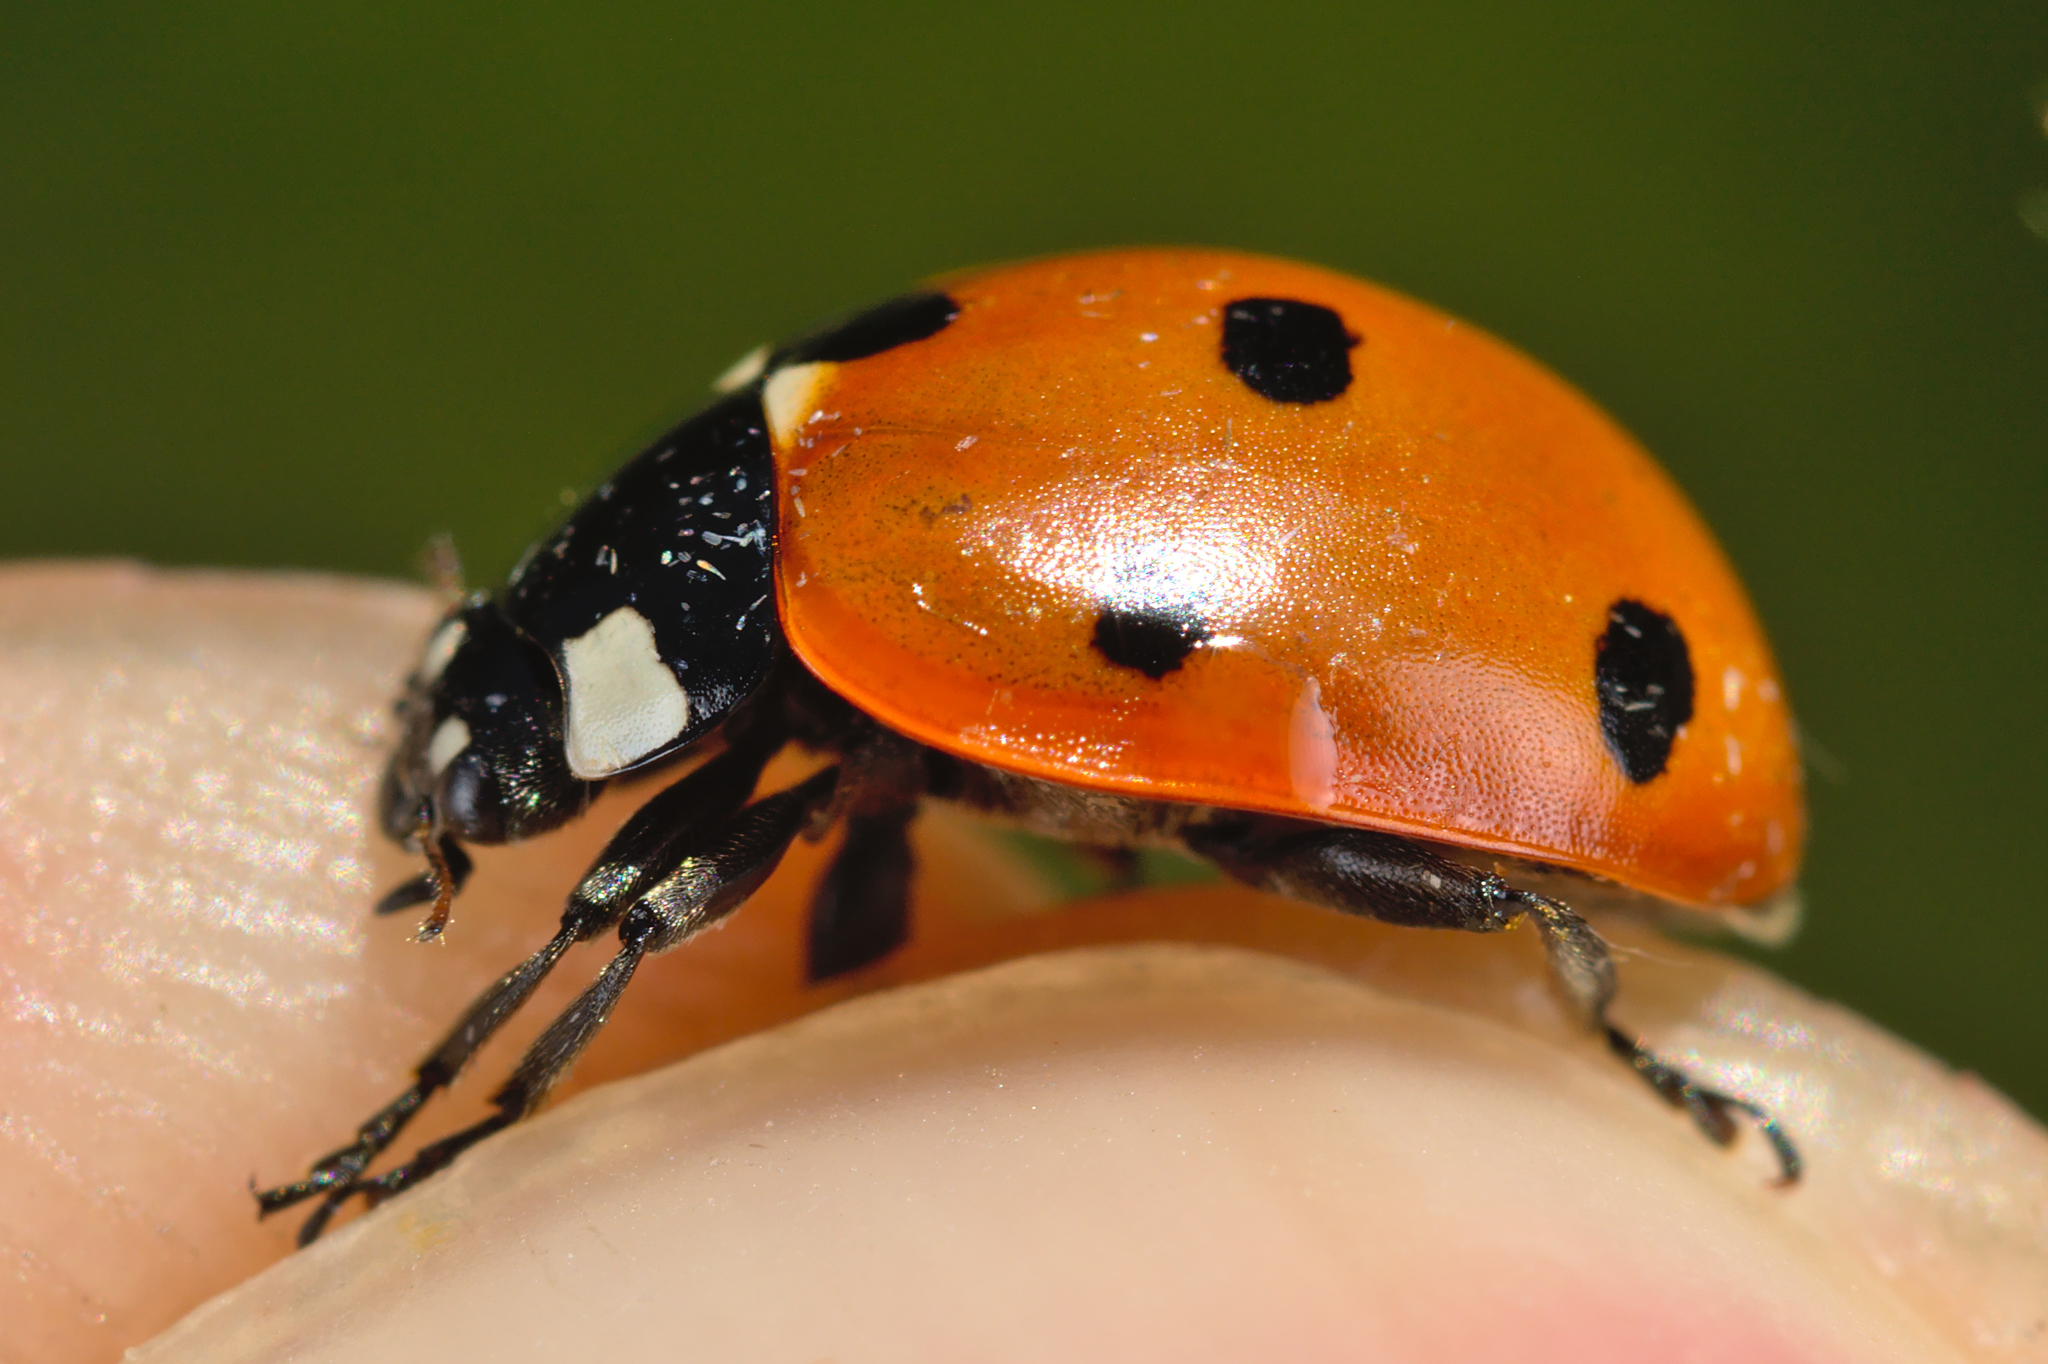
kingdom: Animalia
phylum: Arthropoda
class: Insecta
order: Coleoptera
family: Coccinellidae
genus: Coccinella
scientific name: Coccinella septempunctata
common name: Sevenspotted lady beetle
